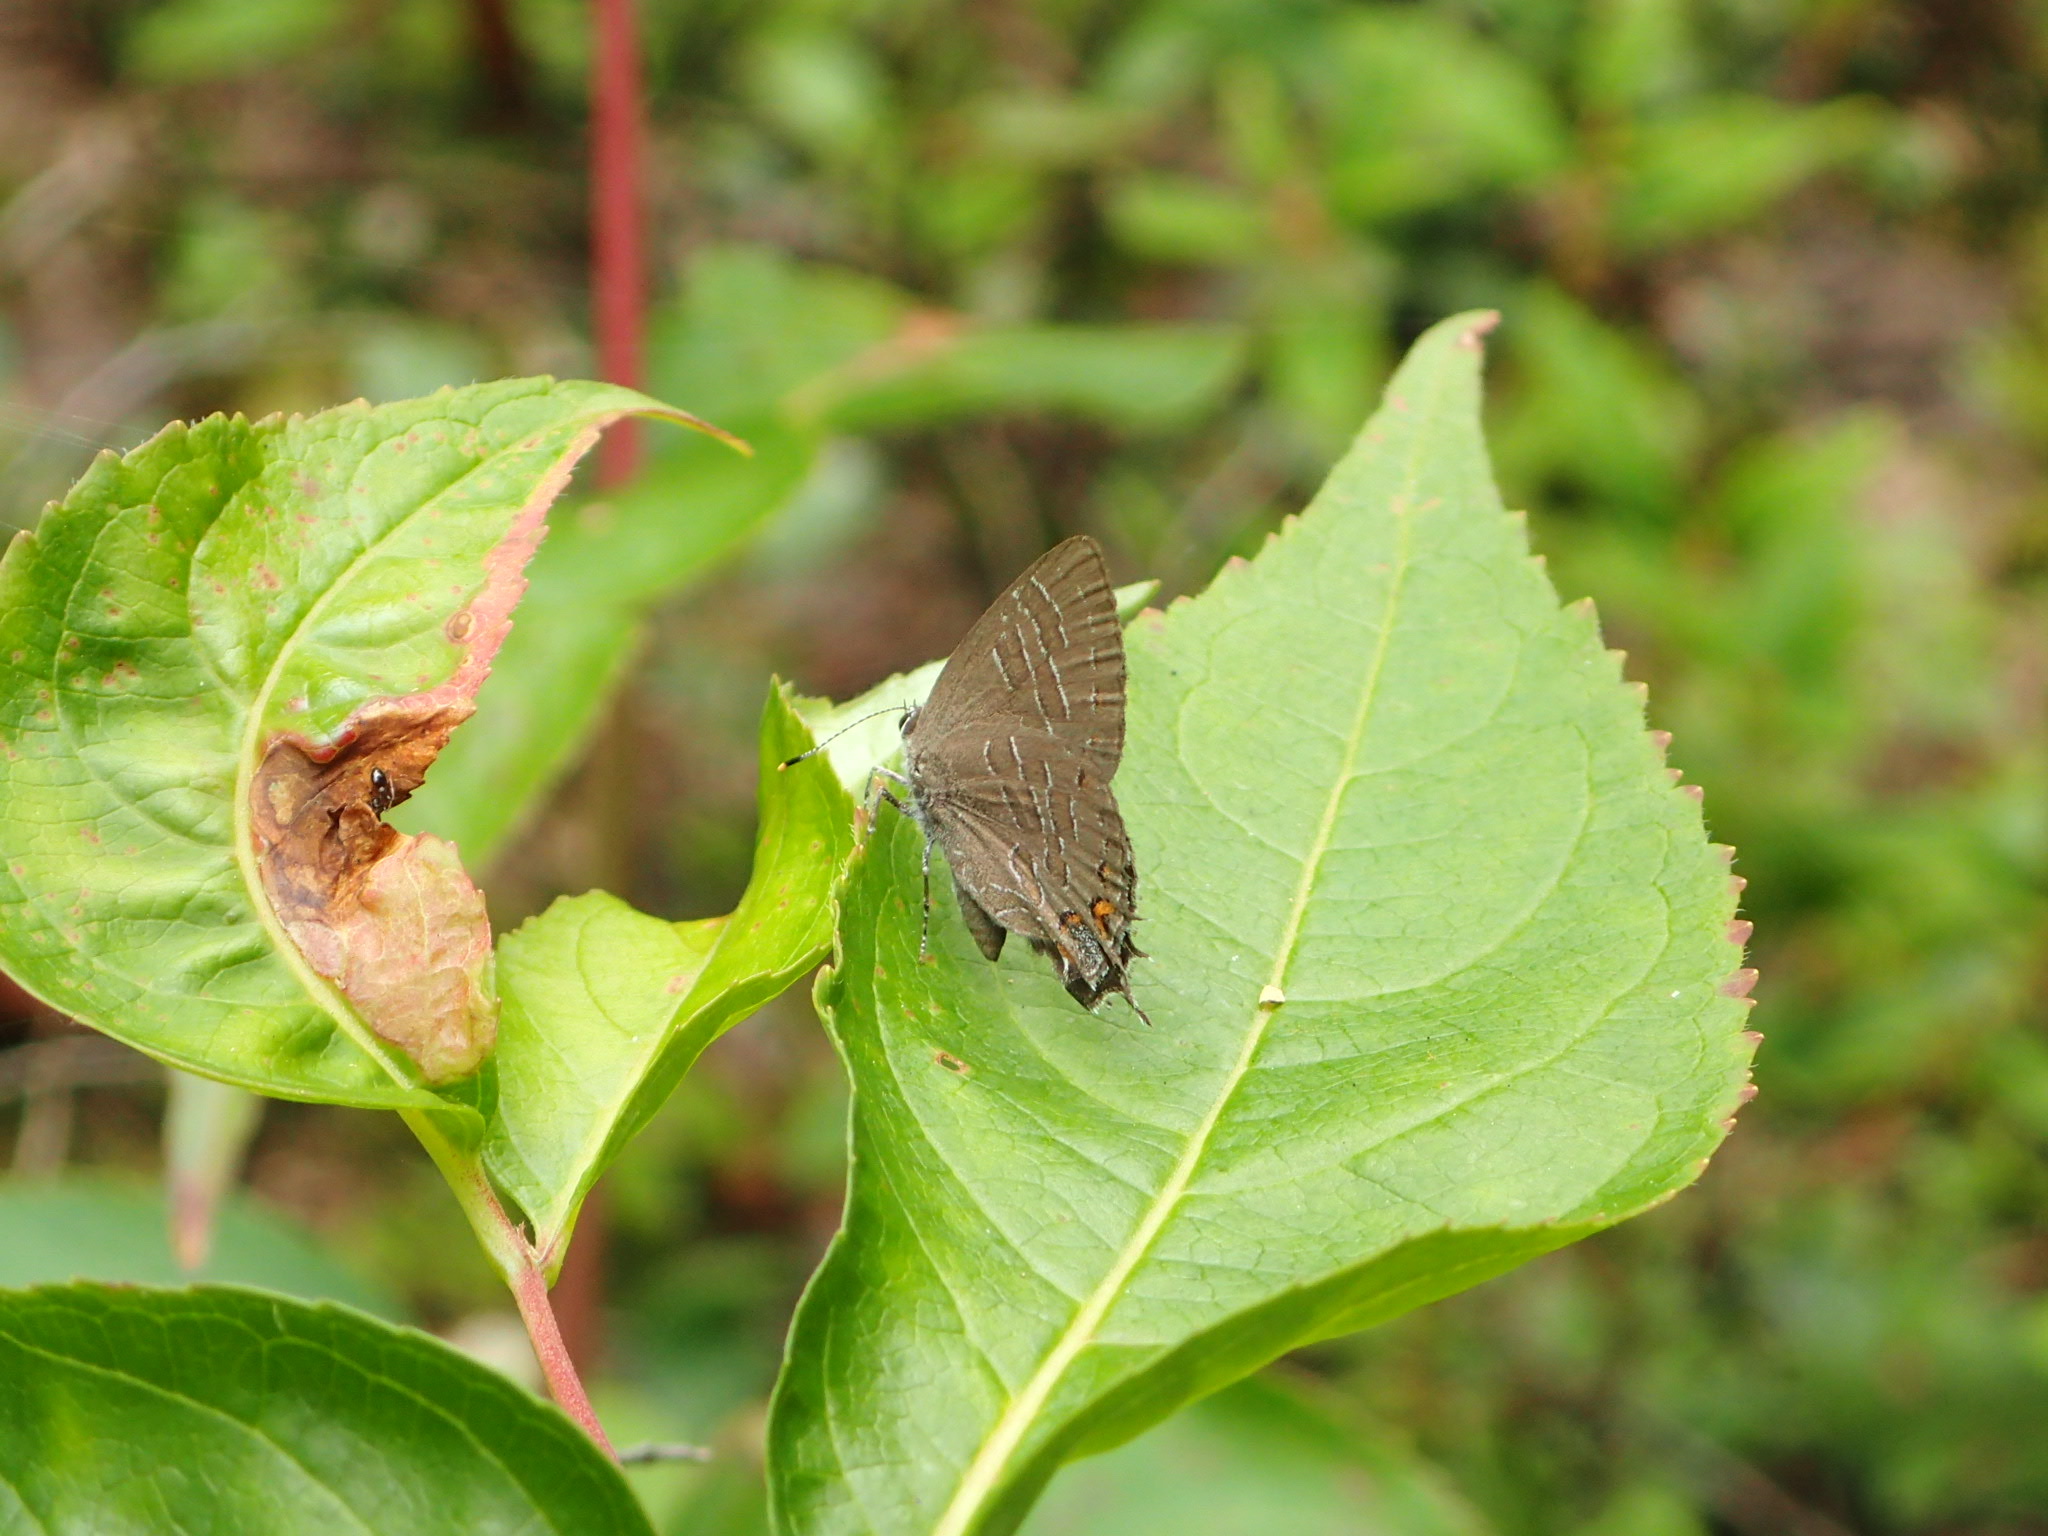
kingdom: Animalia
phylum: Arthropoda
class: Insecta
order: Lepidoptera
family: Lycaenidae
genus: Satyrium
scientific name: Satyrium liparops
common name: Striped hairstreak
